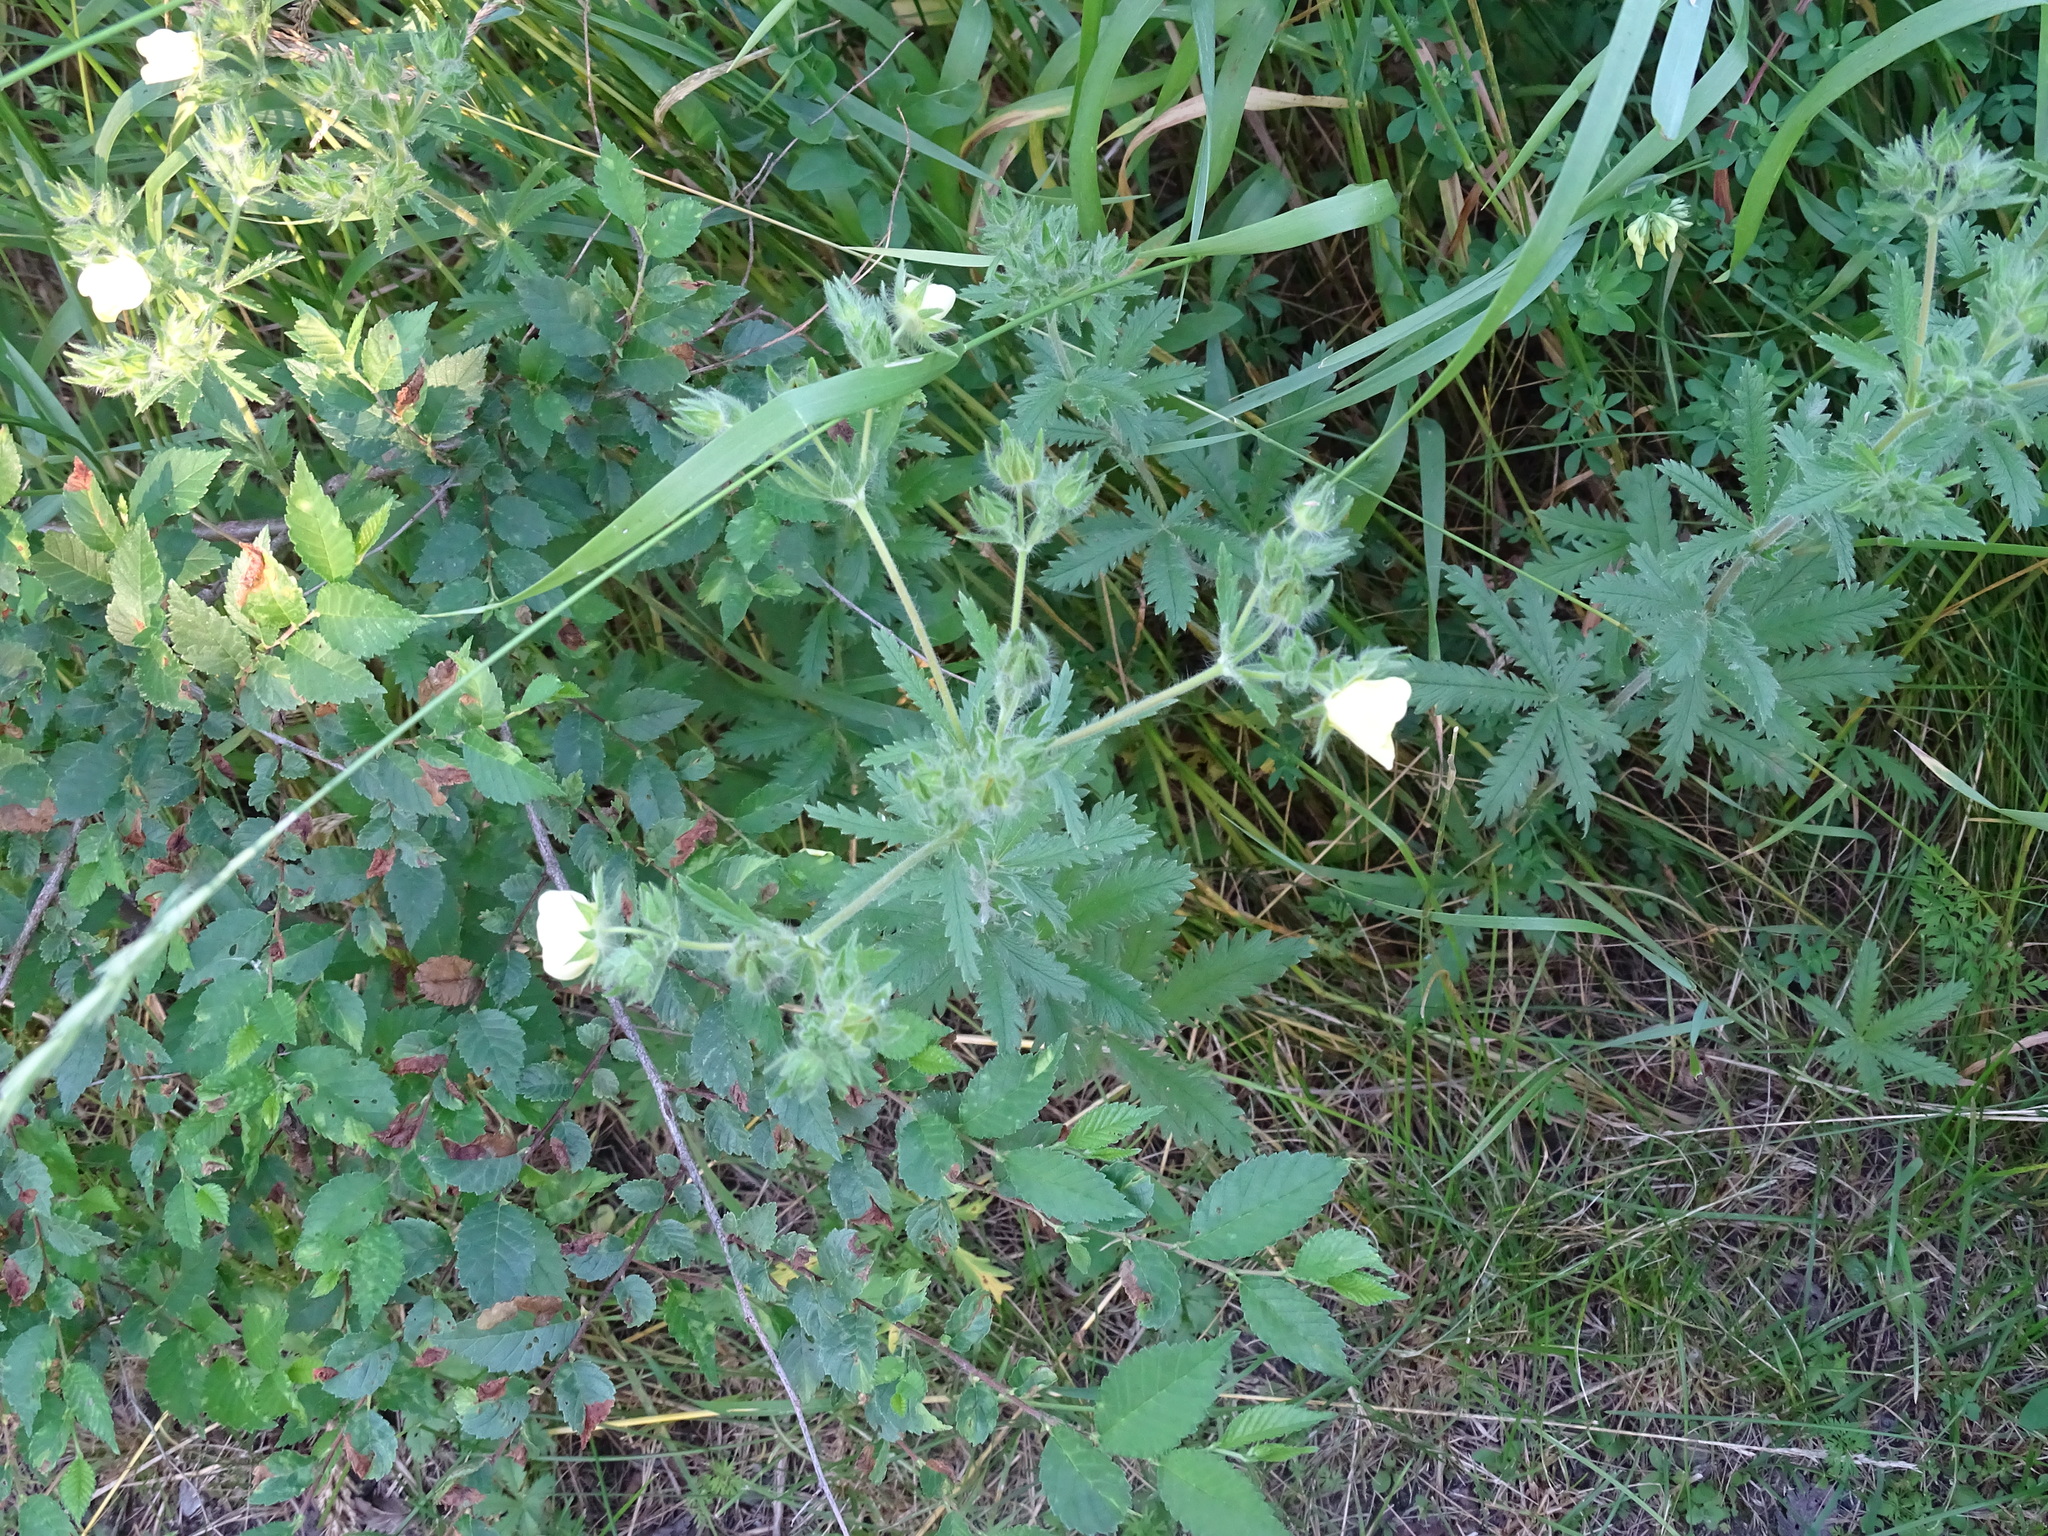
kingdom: Plantae
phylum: Tracheophyta
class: Magnoliopsida
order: Rosales
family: Rosaceae
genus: Potentilla
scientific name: Potentilla recta
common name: Sulphur cinquefoil
